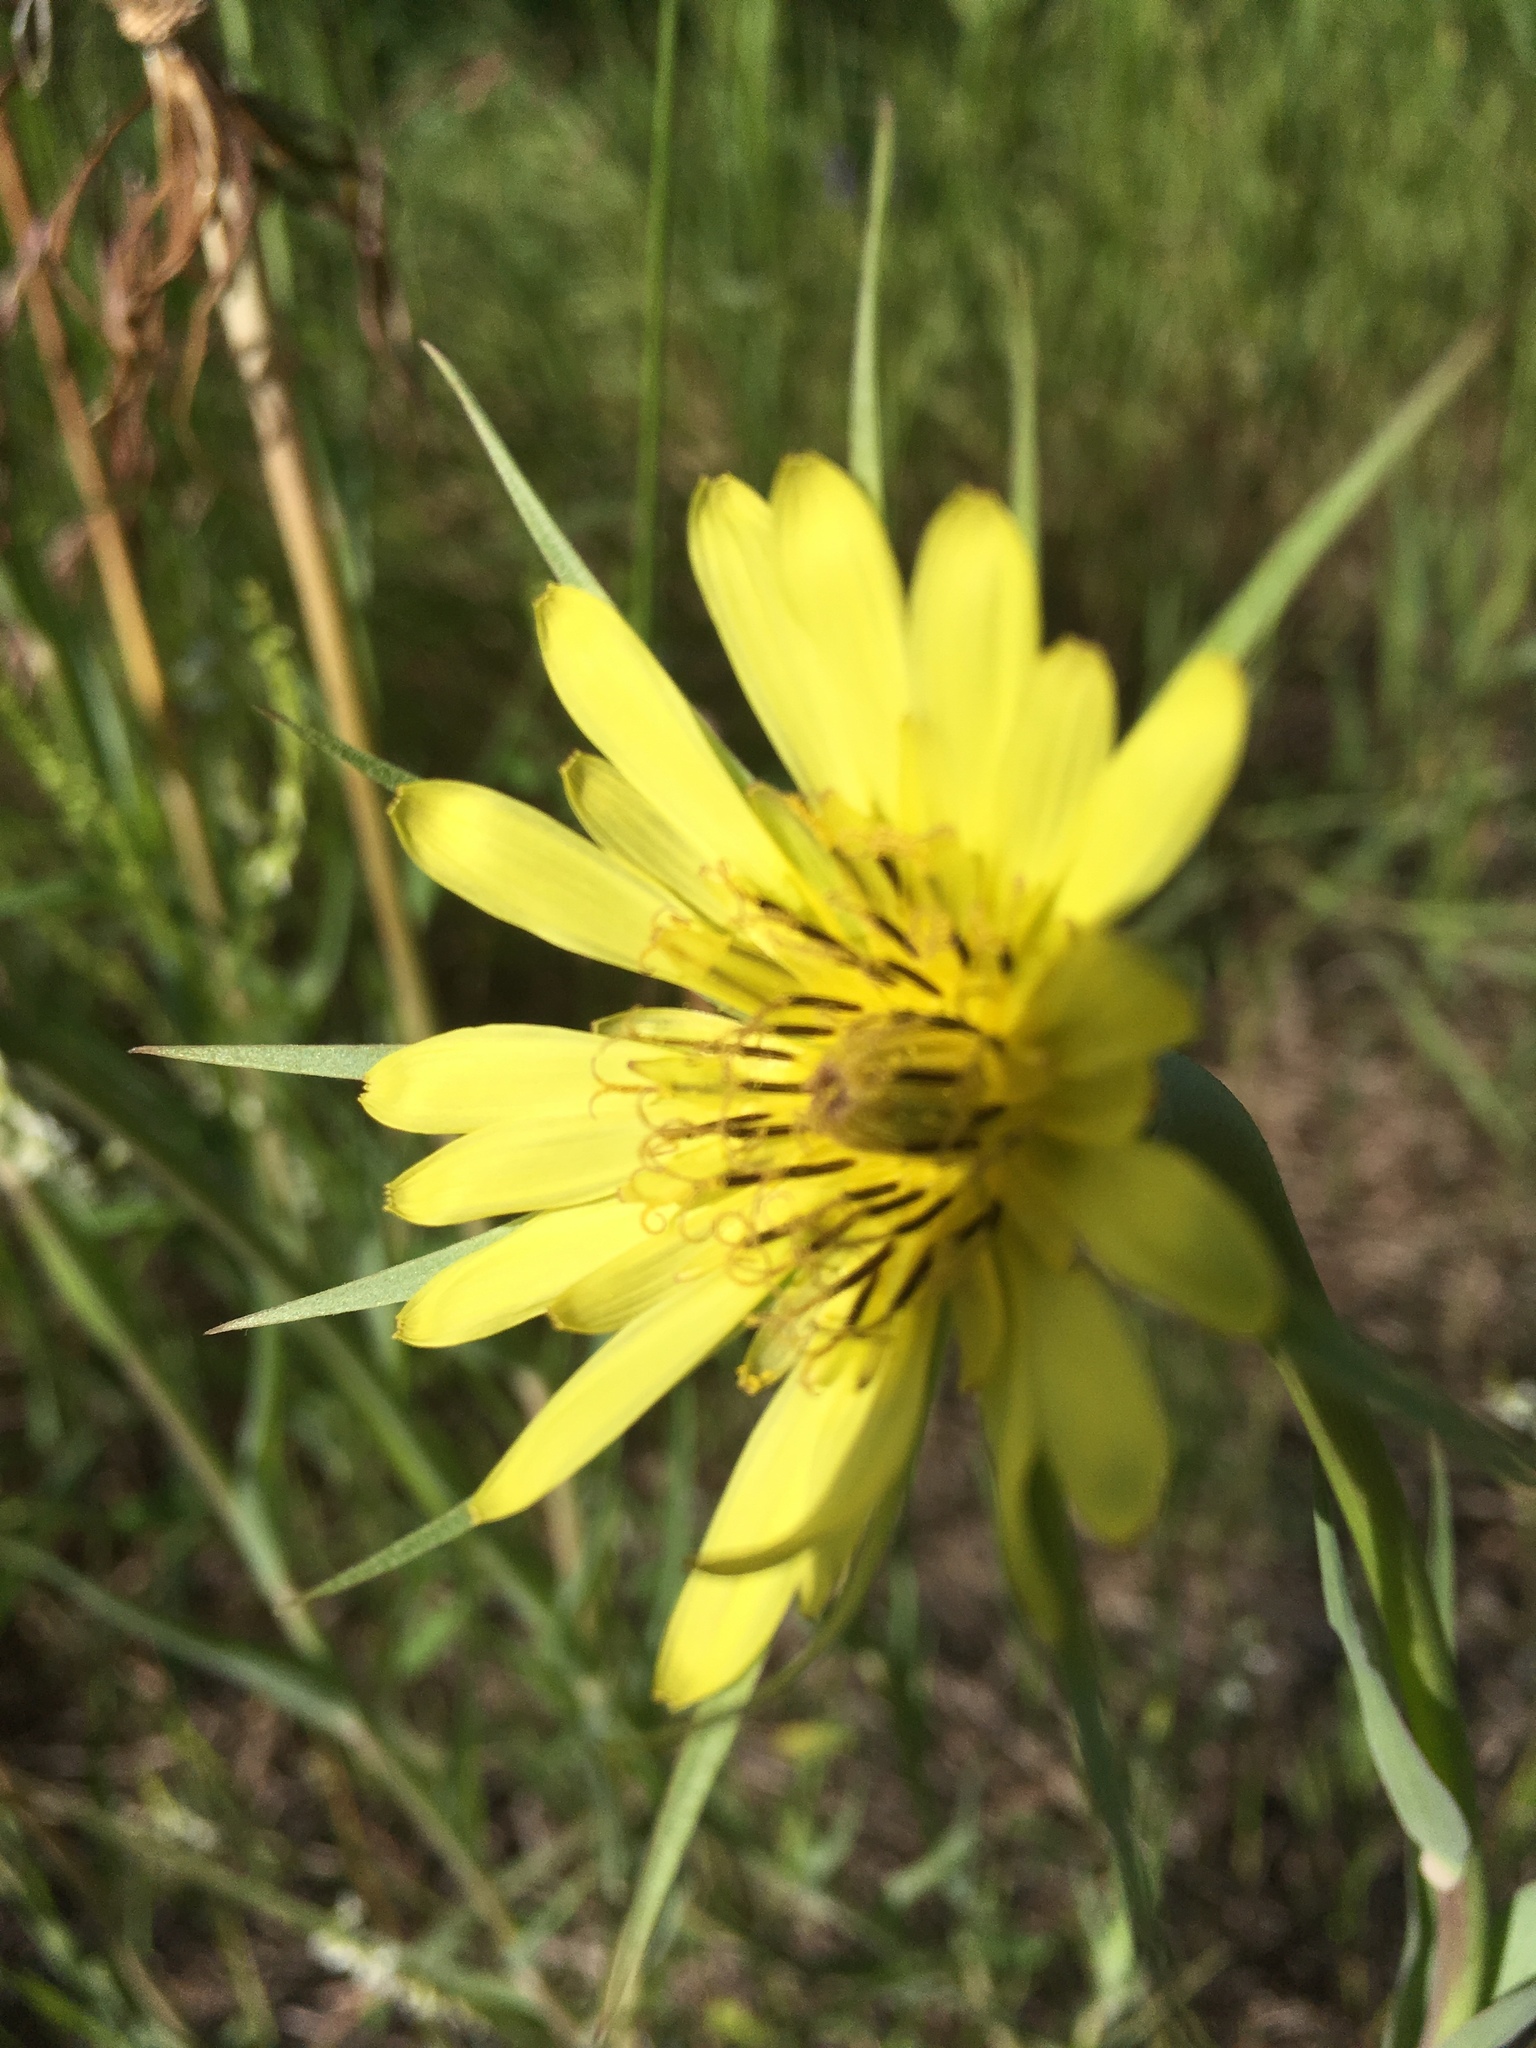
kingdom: Plantae
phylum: Tracheophyta
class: Magnoliopsida
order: Asterales
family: Asteraceae
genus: Tragopogon
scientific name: Tragopogon dubius
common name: Yellow salsify
